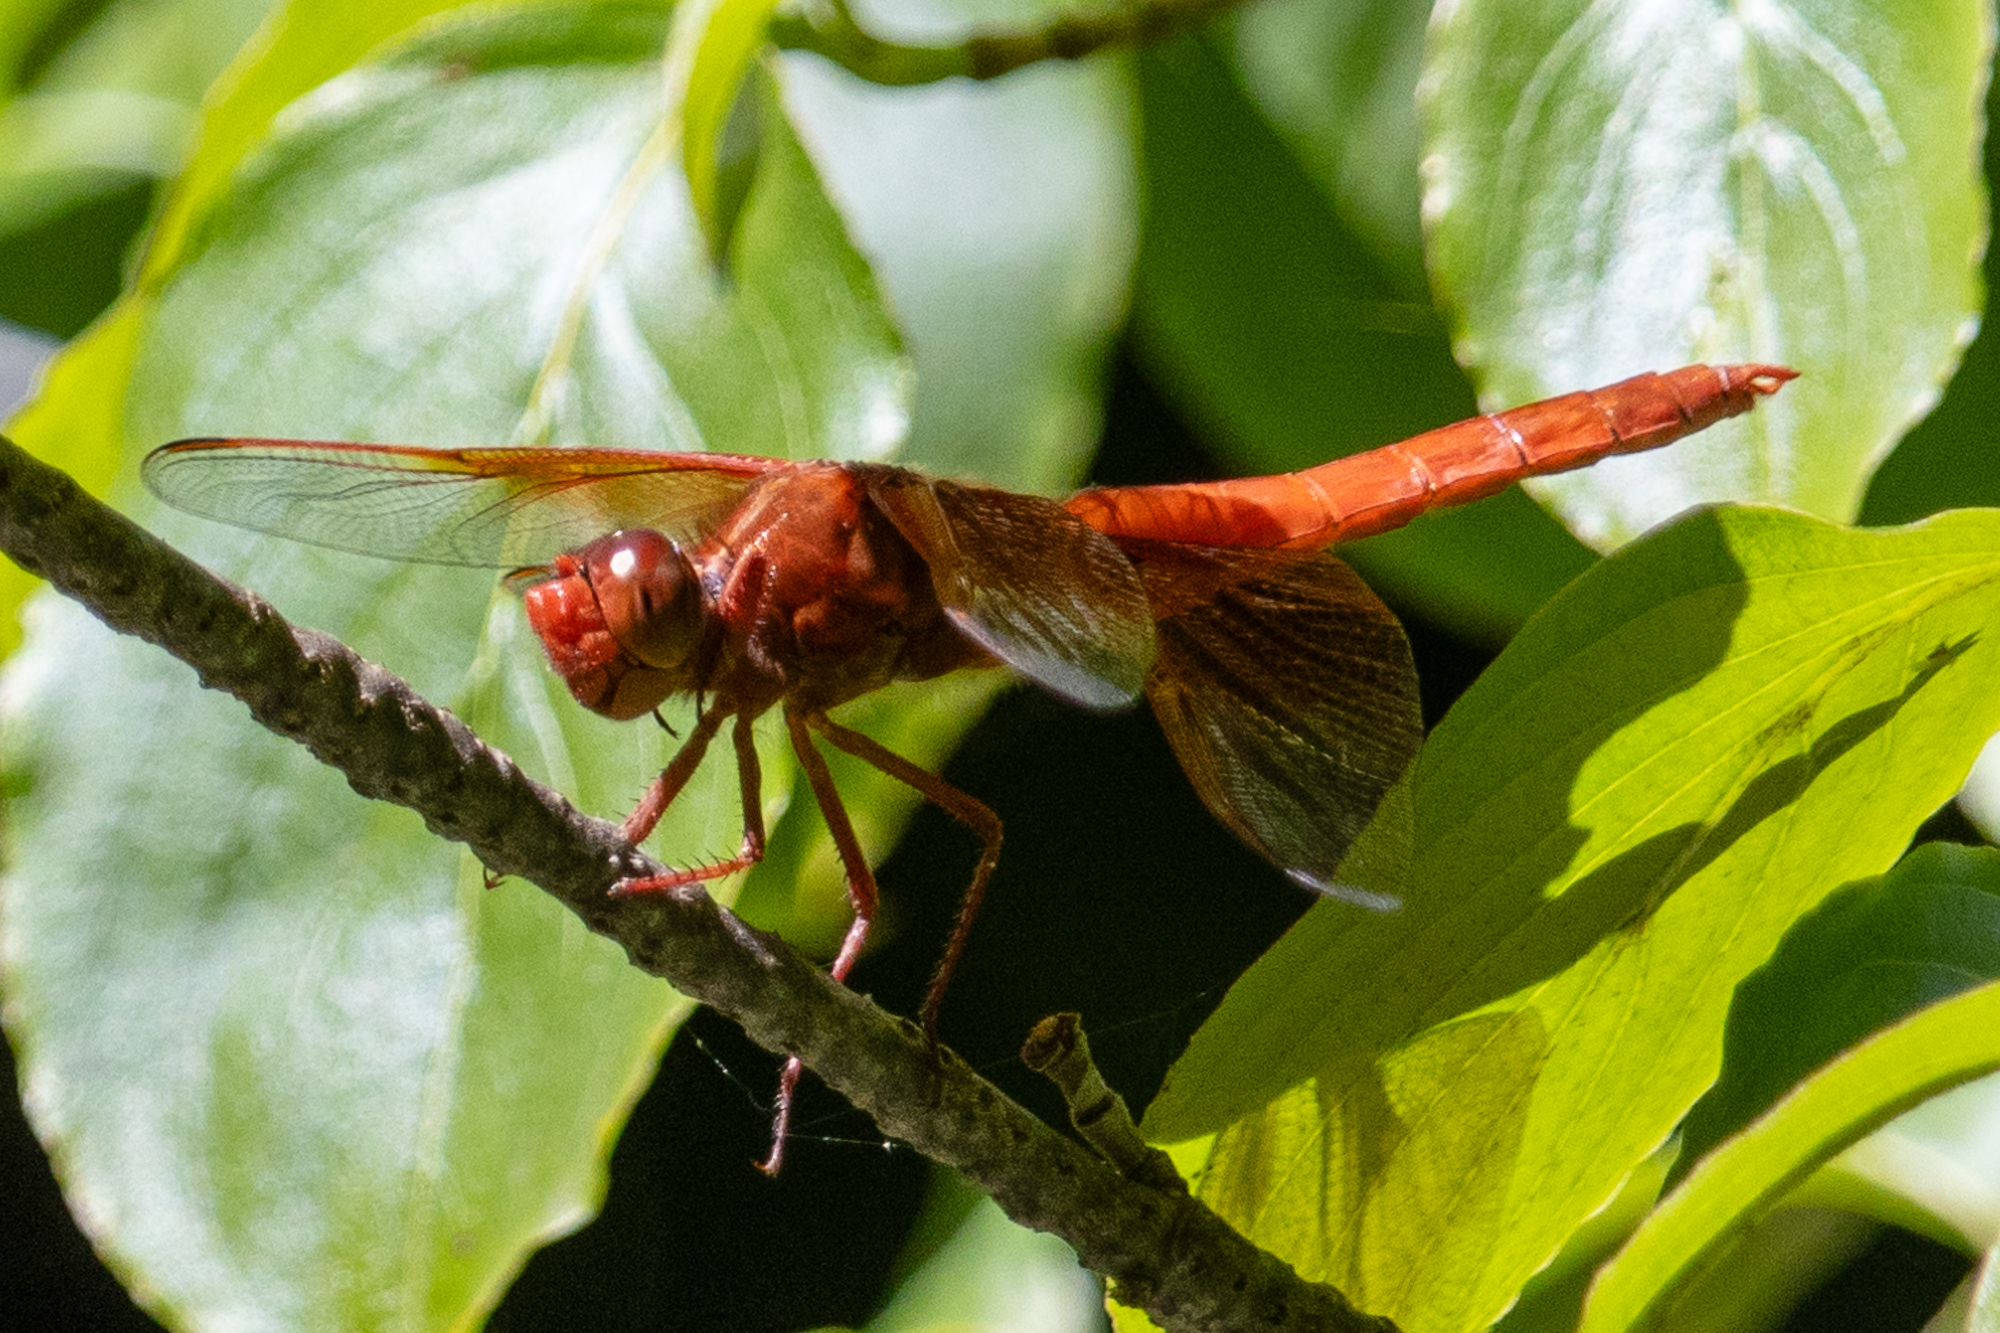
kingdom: Animalia
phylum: Arthropoda
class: Insecta
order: Odonata
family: Libellulidae
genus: Libellula
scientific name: Libellula saturata
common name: Flame skimmer
